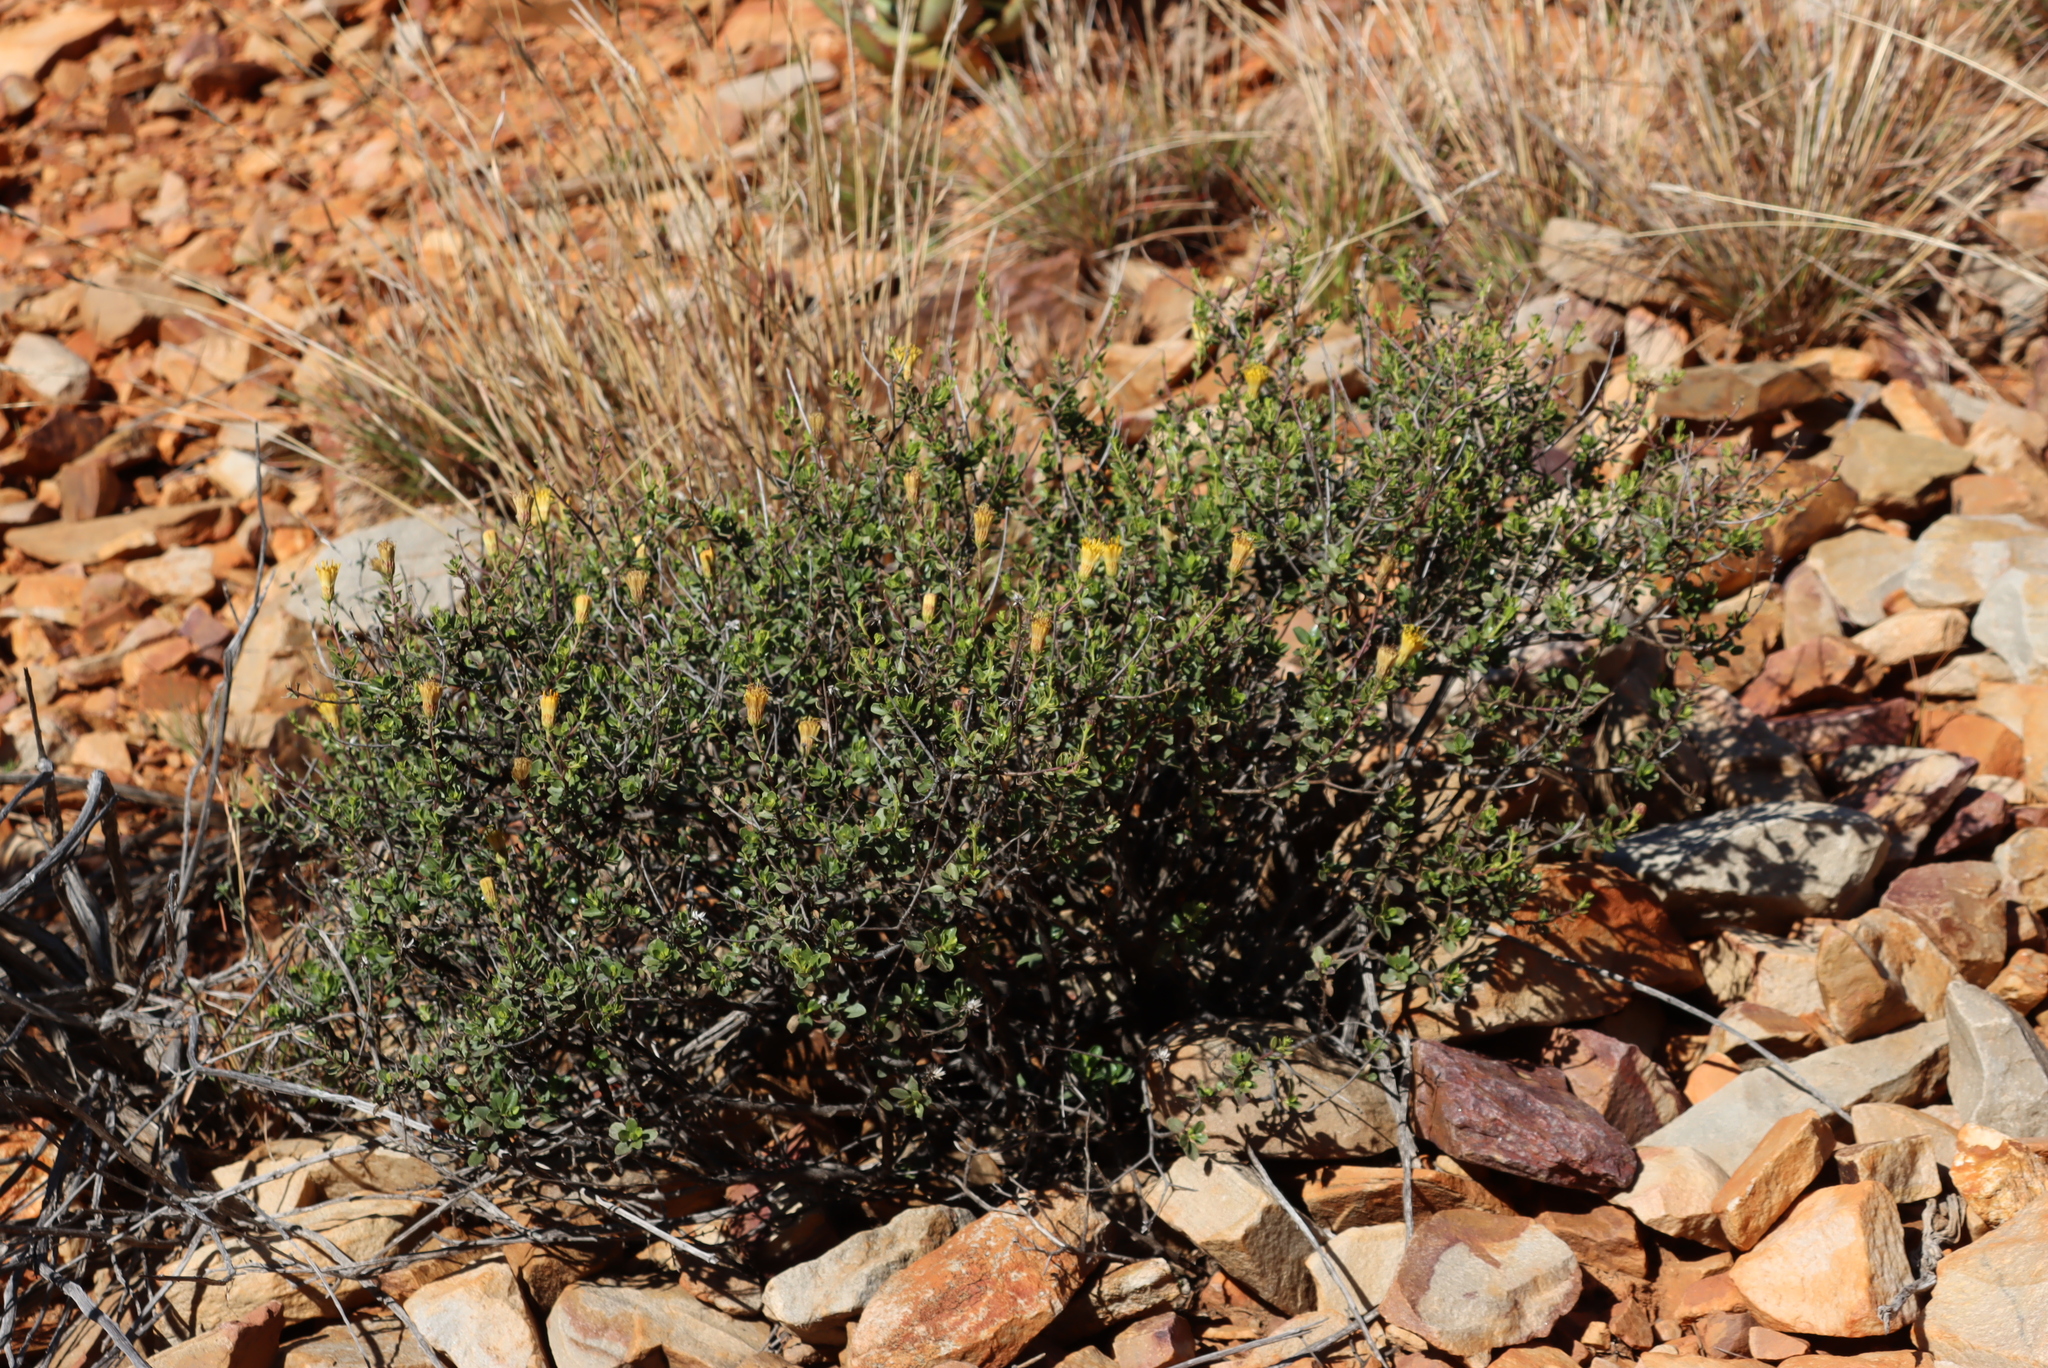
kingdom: Plantae
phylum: Tracheophyta
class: Magnoliopsida
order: Asterales
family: Asteraceae
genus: Pegolettia
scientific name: Pegolettia baccaridifolia
